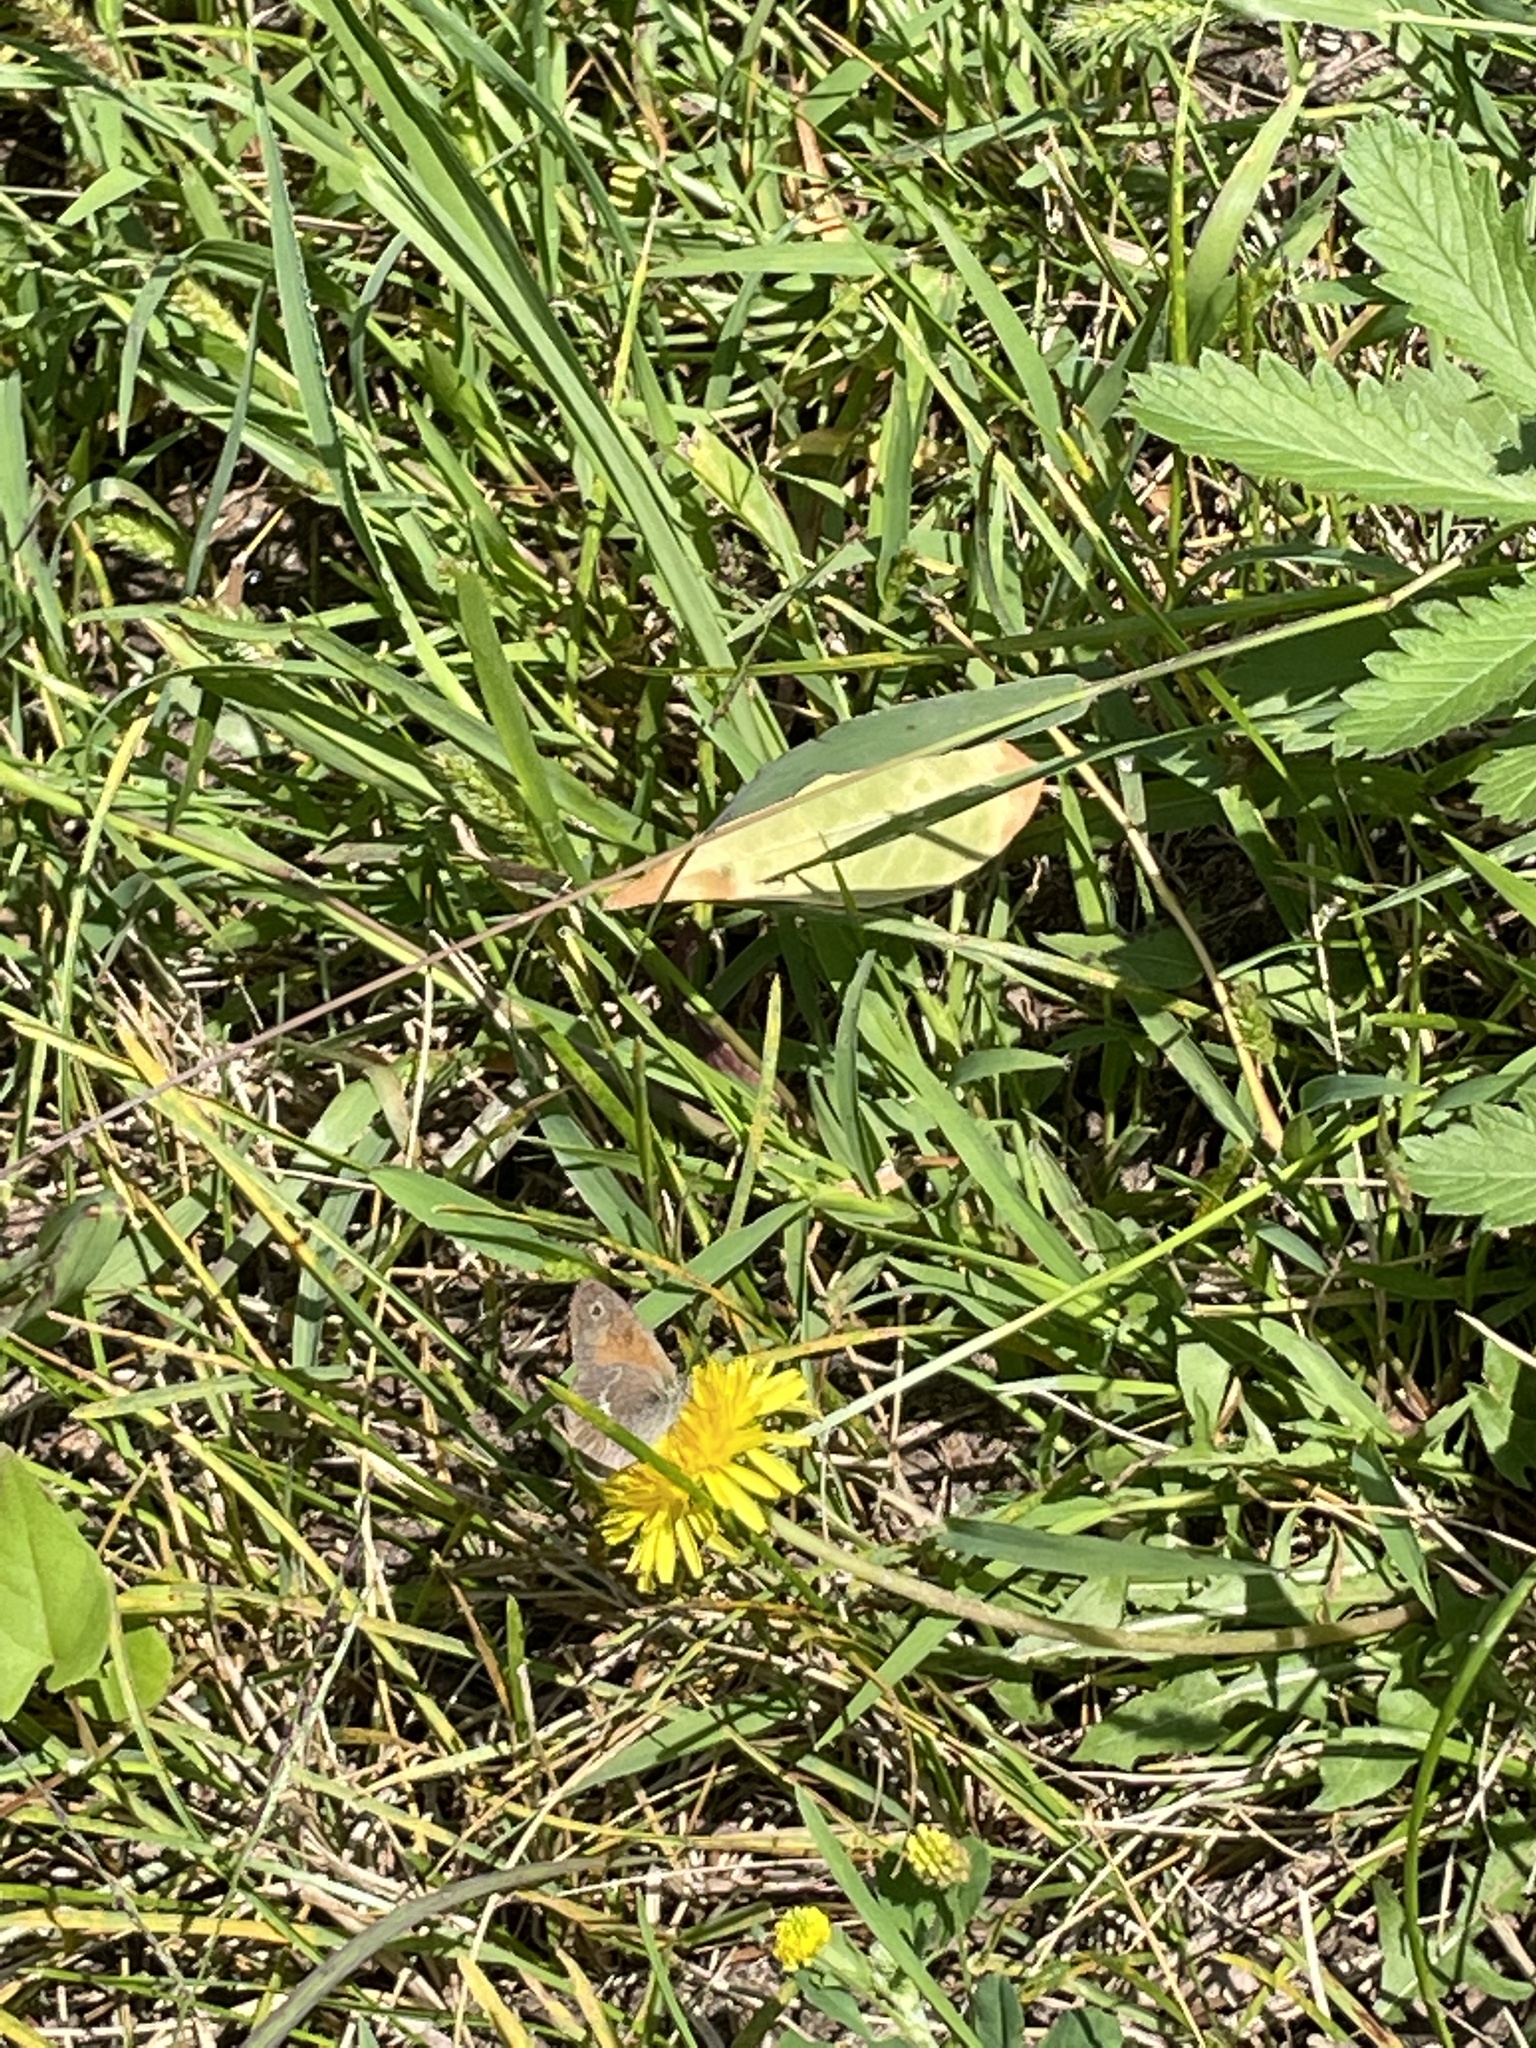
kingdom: Animalia
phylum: Arthropoda
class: Insecta
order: Lepidoptera
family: Nymphalidae
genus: Coenonympha
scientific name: Coenonympha california
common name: Common ringlet
